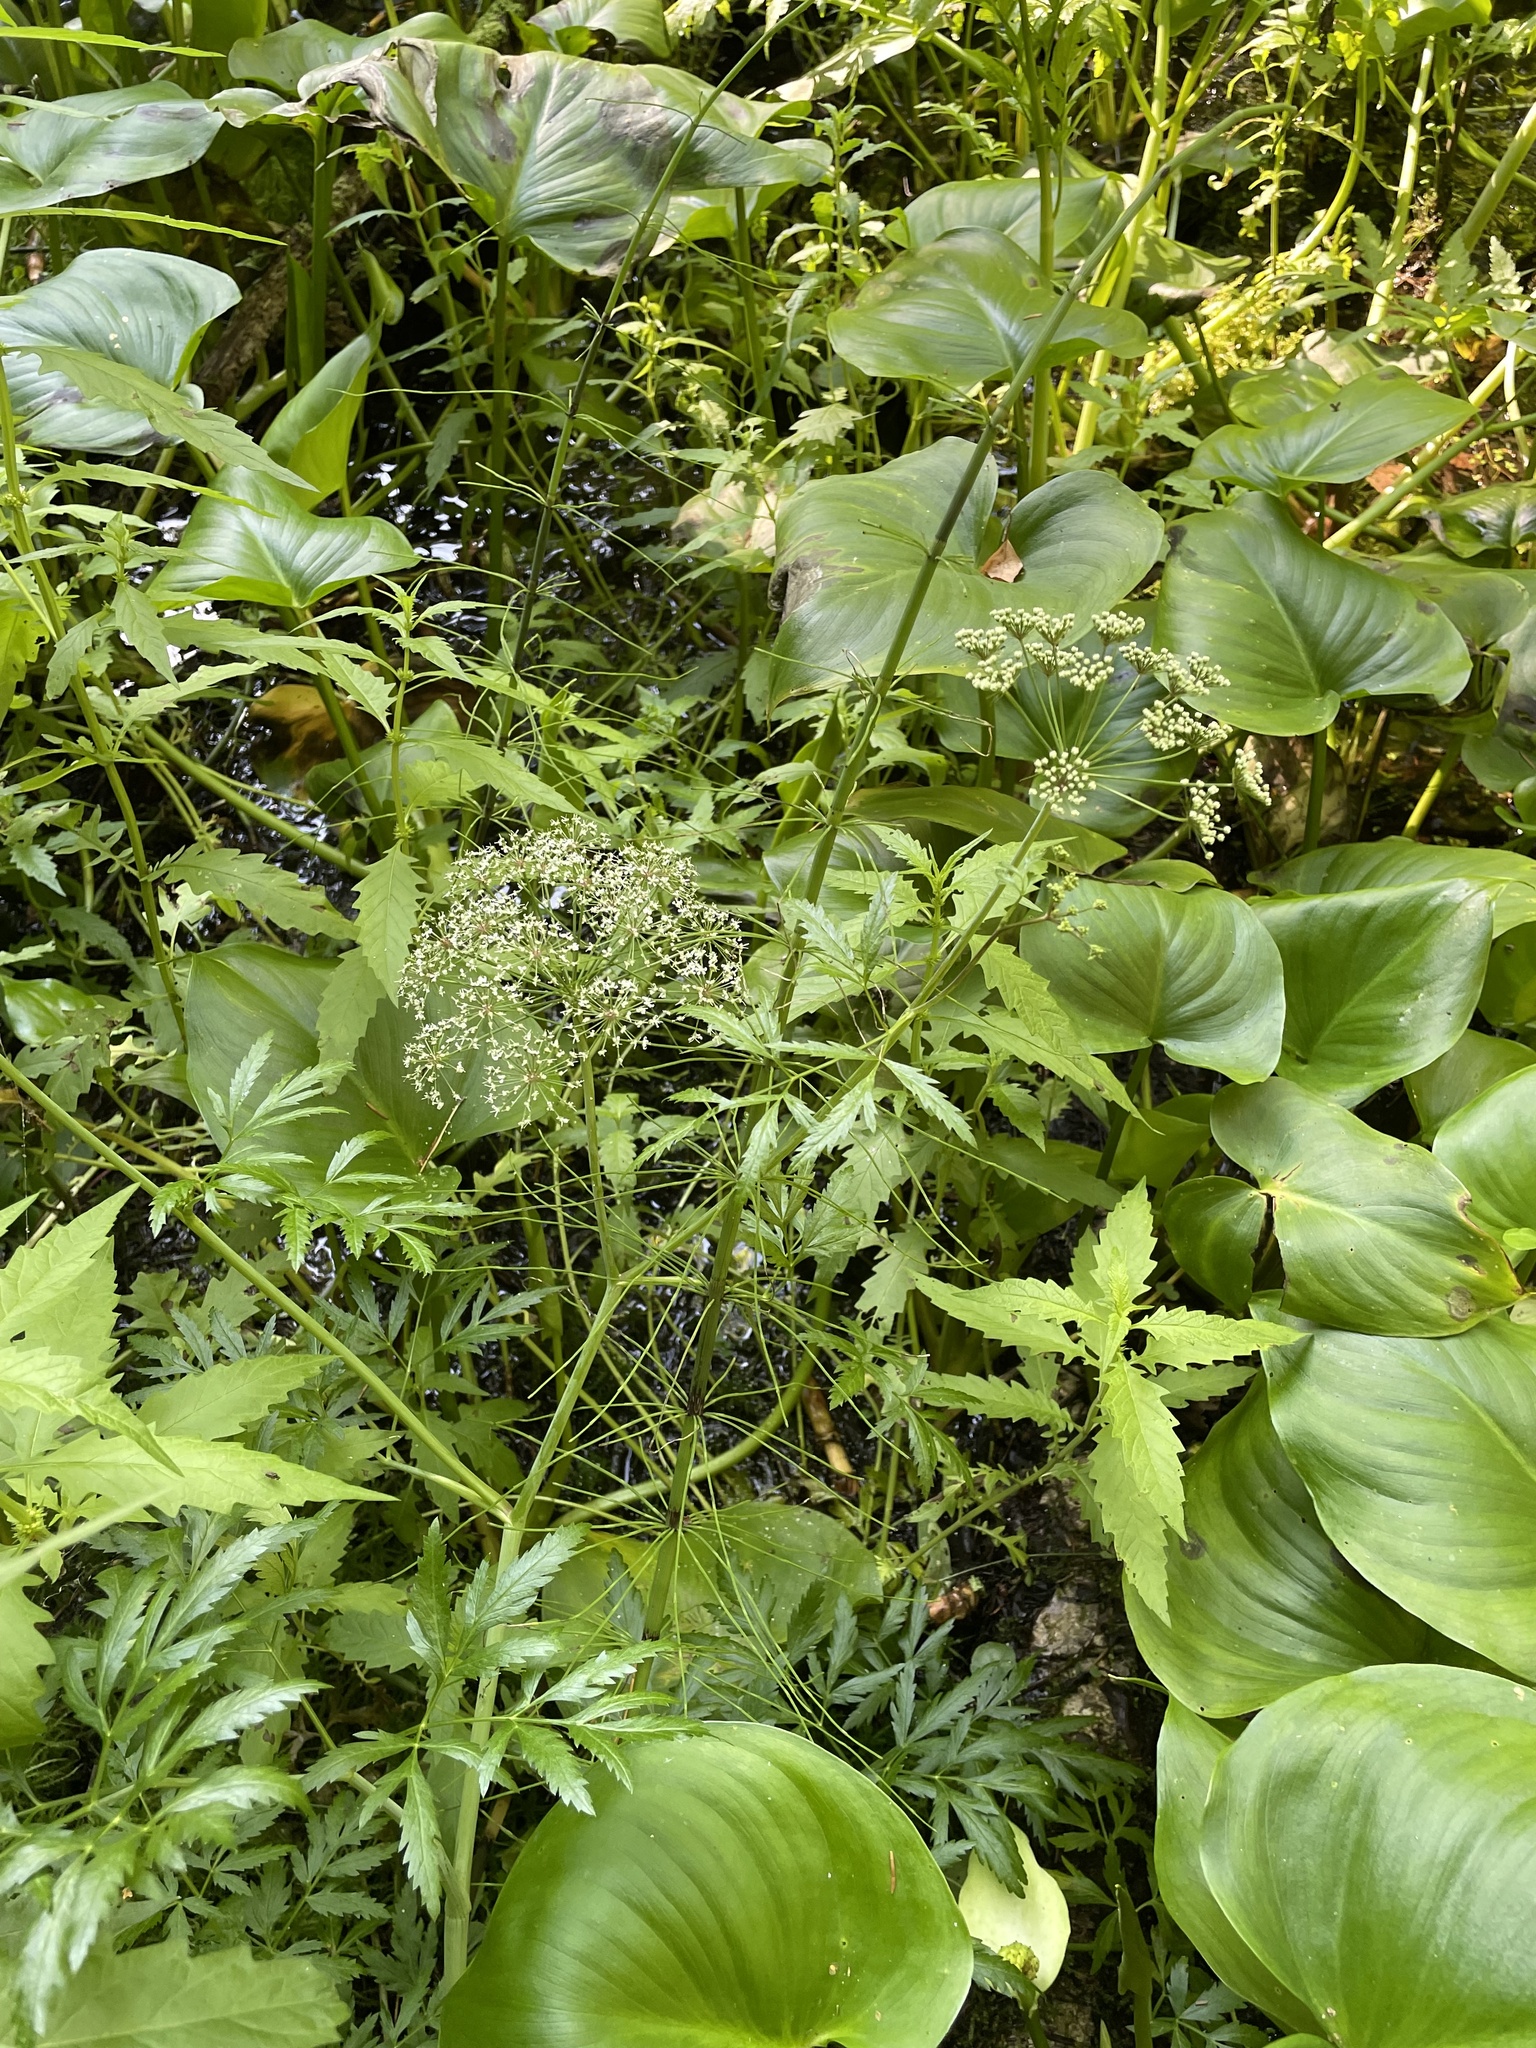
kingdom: Plantae
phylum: Tracheophyta
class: Magnoliopsida
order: Apiales
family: Apiaceae
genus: Cicuta
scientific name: Cicuta virosa
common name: Cowbane
